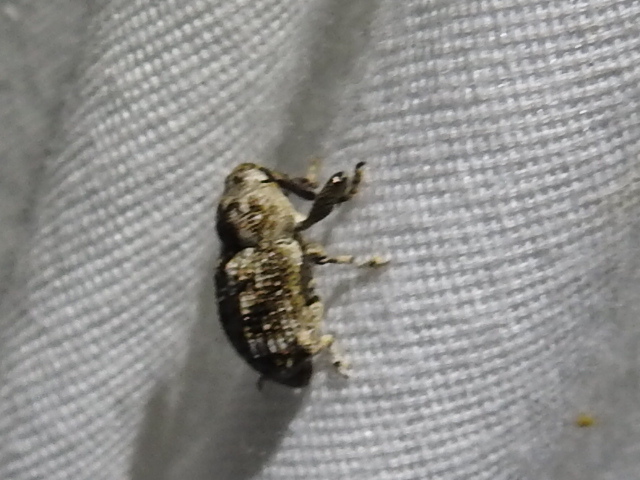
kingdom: Animalia
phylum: Arthropoda
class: Insecta
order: Coleoptera
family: Curculionidae
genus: Episcirrus
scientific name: Episcirrus brachialis
